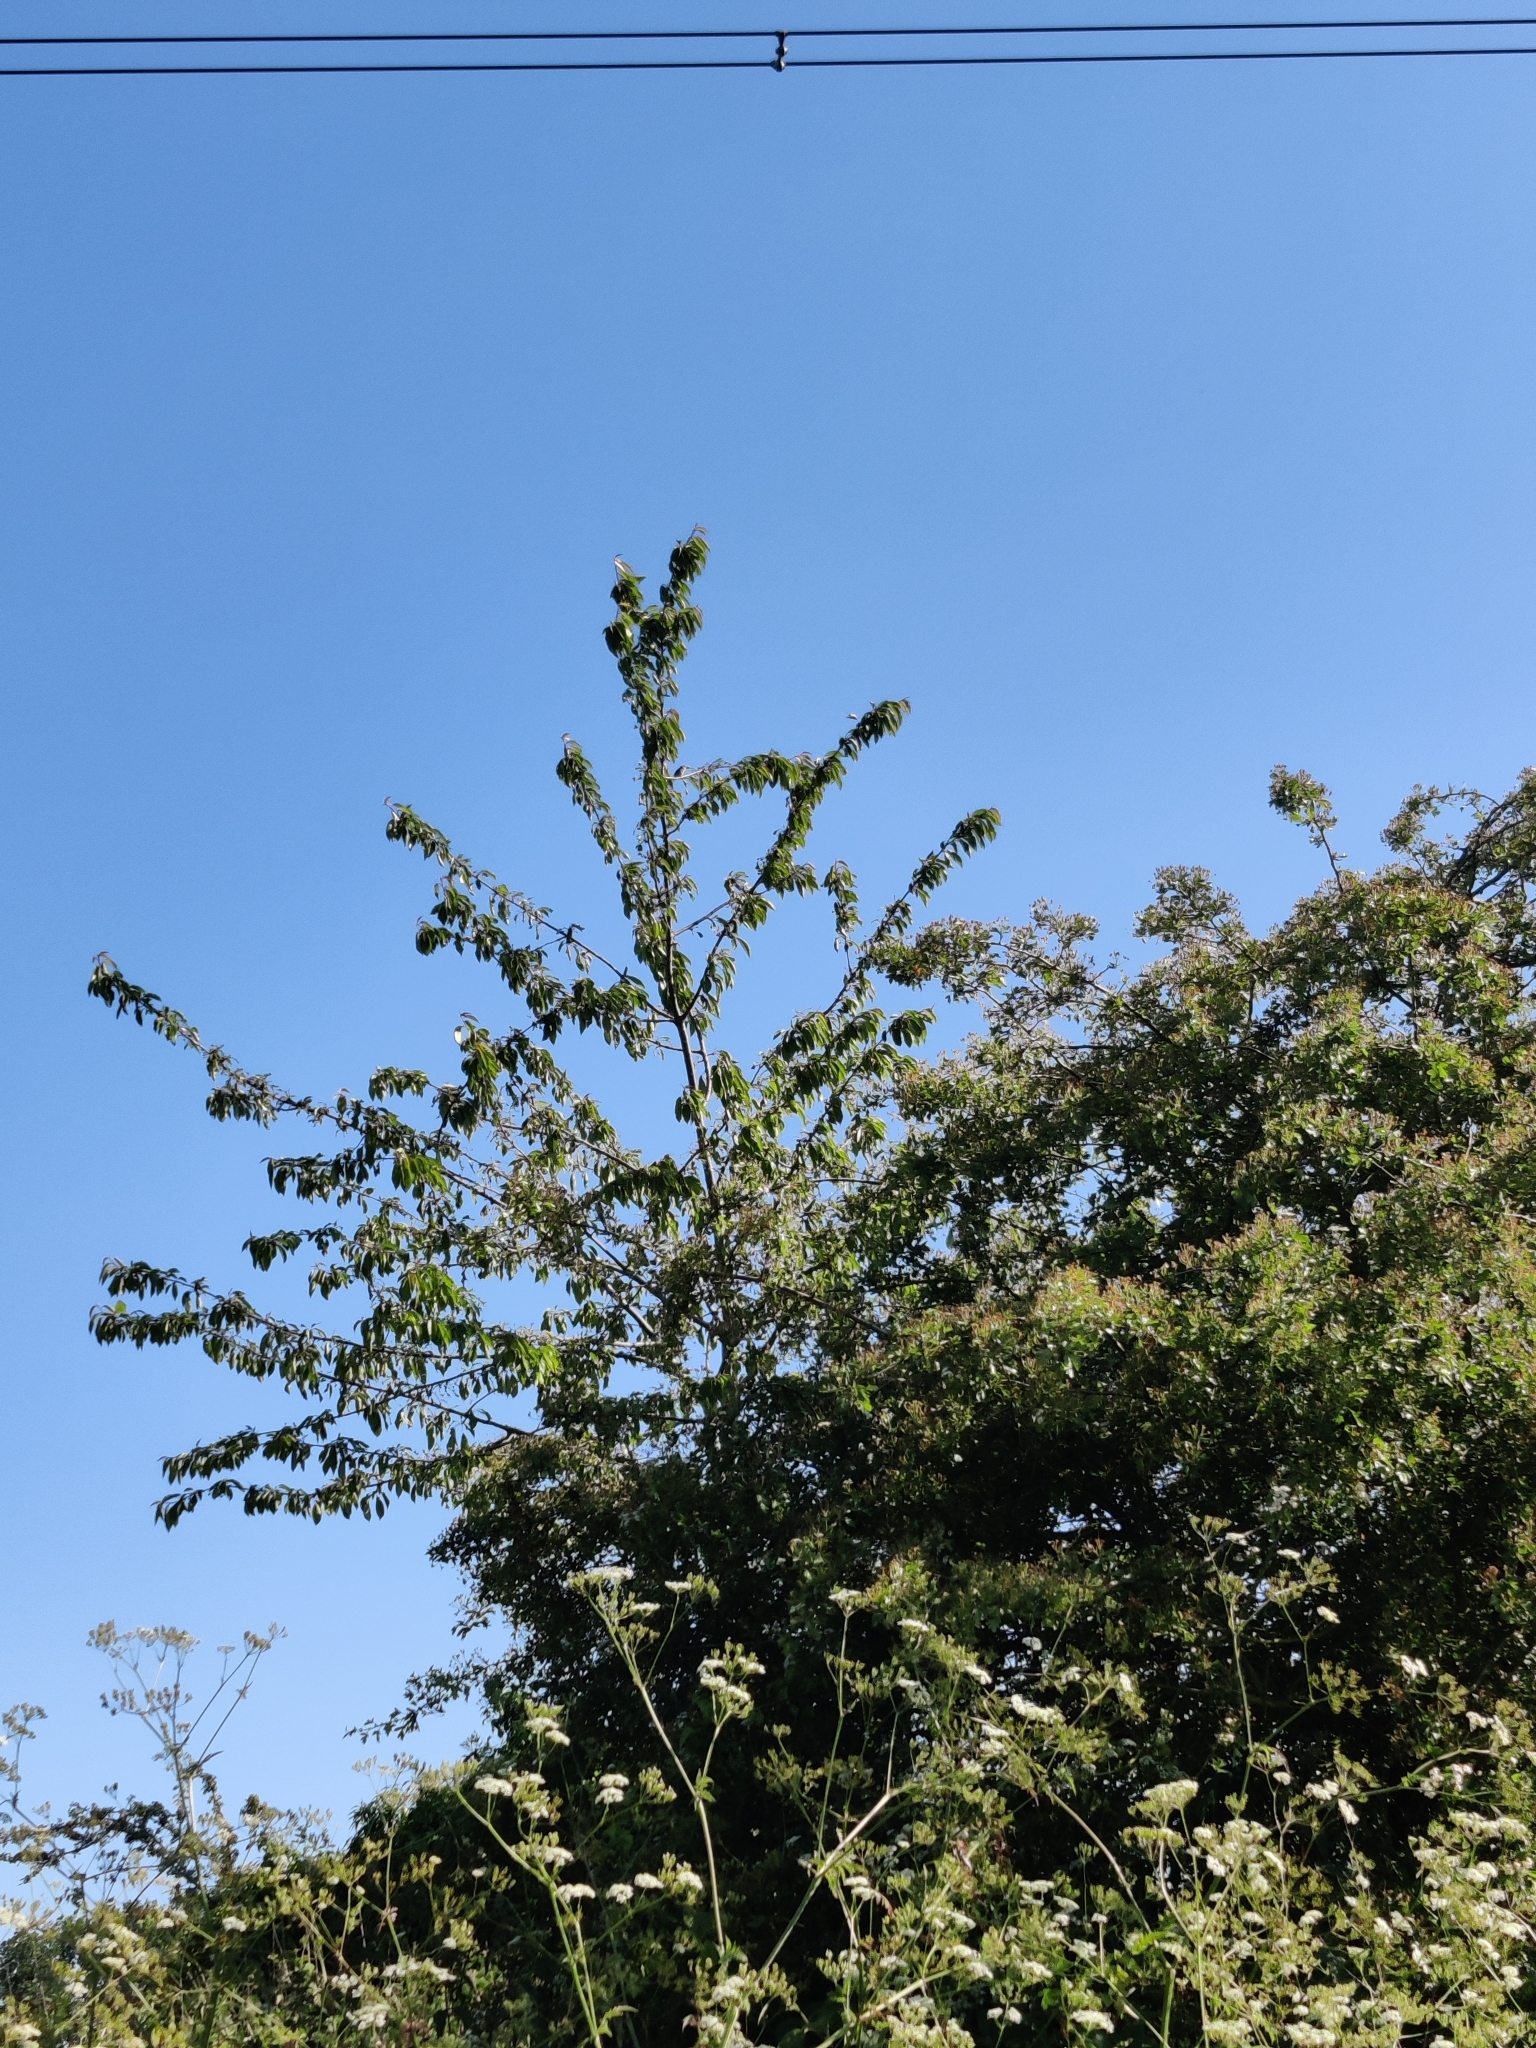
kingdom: Animalia
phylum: Chordata
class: Aves
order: Passeriformes
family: Sylviidae
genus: Sylvia
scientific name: Sylvia communis
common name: Common whitethroat
